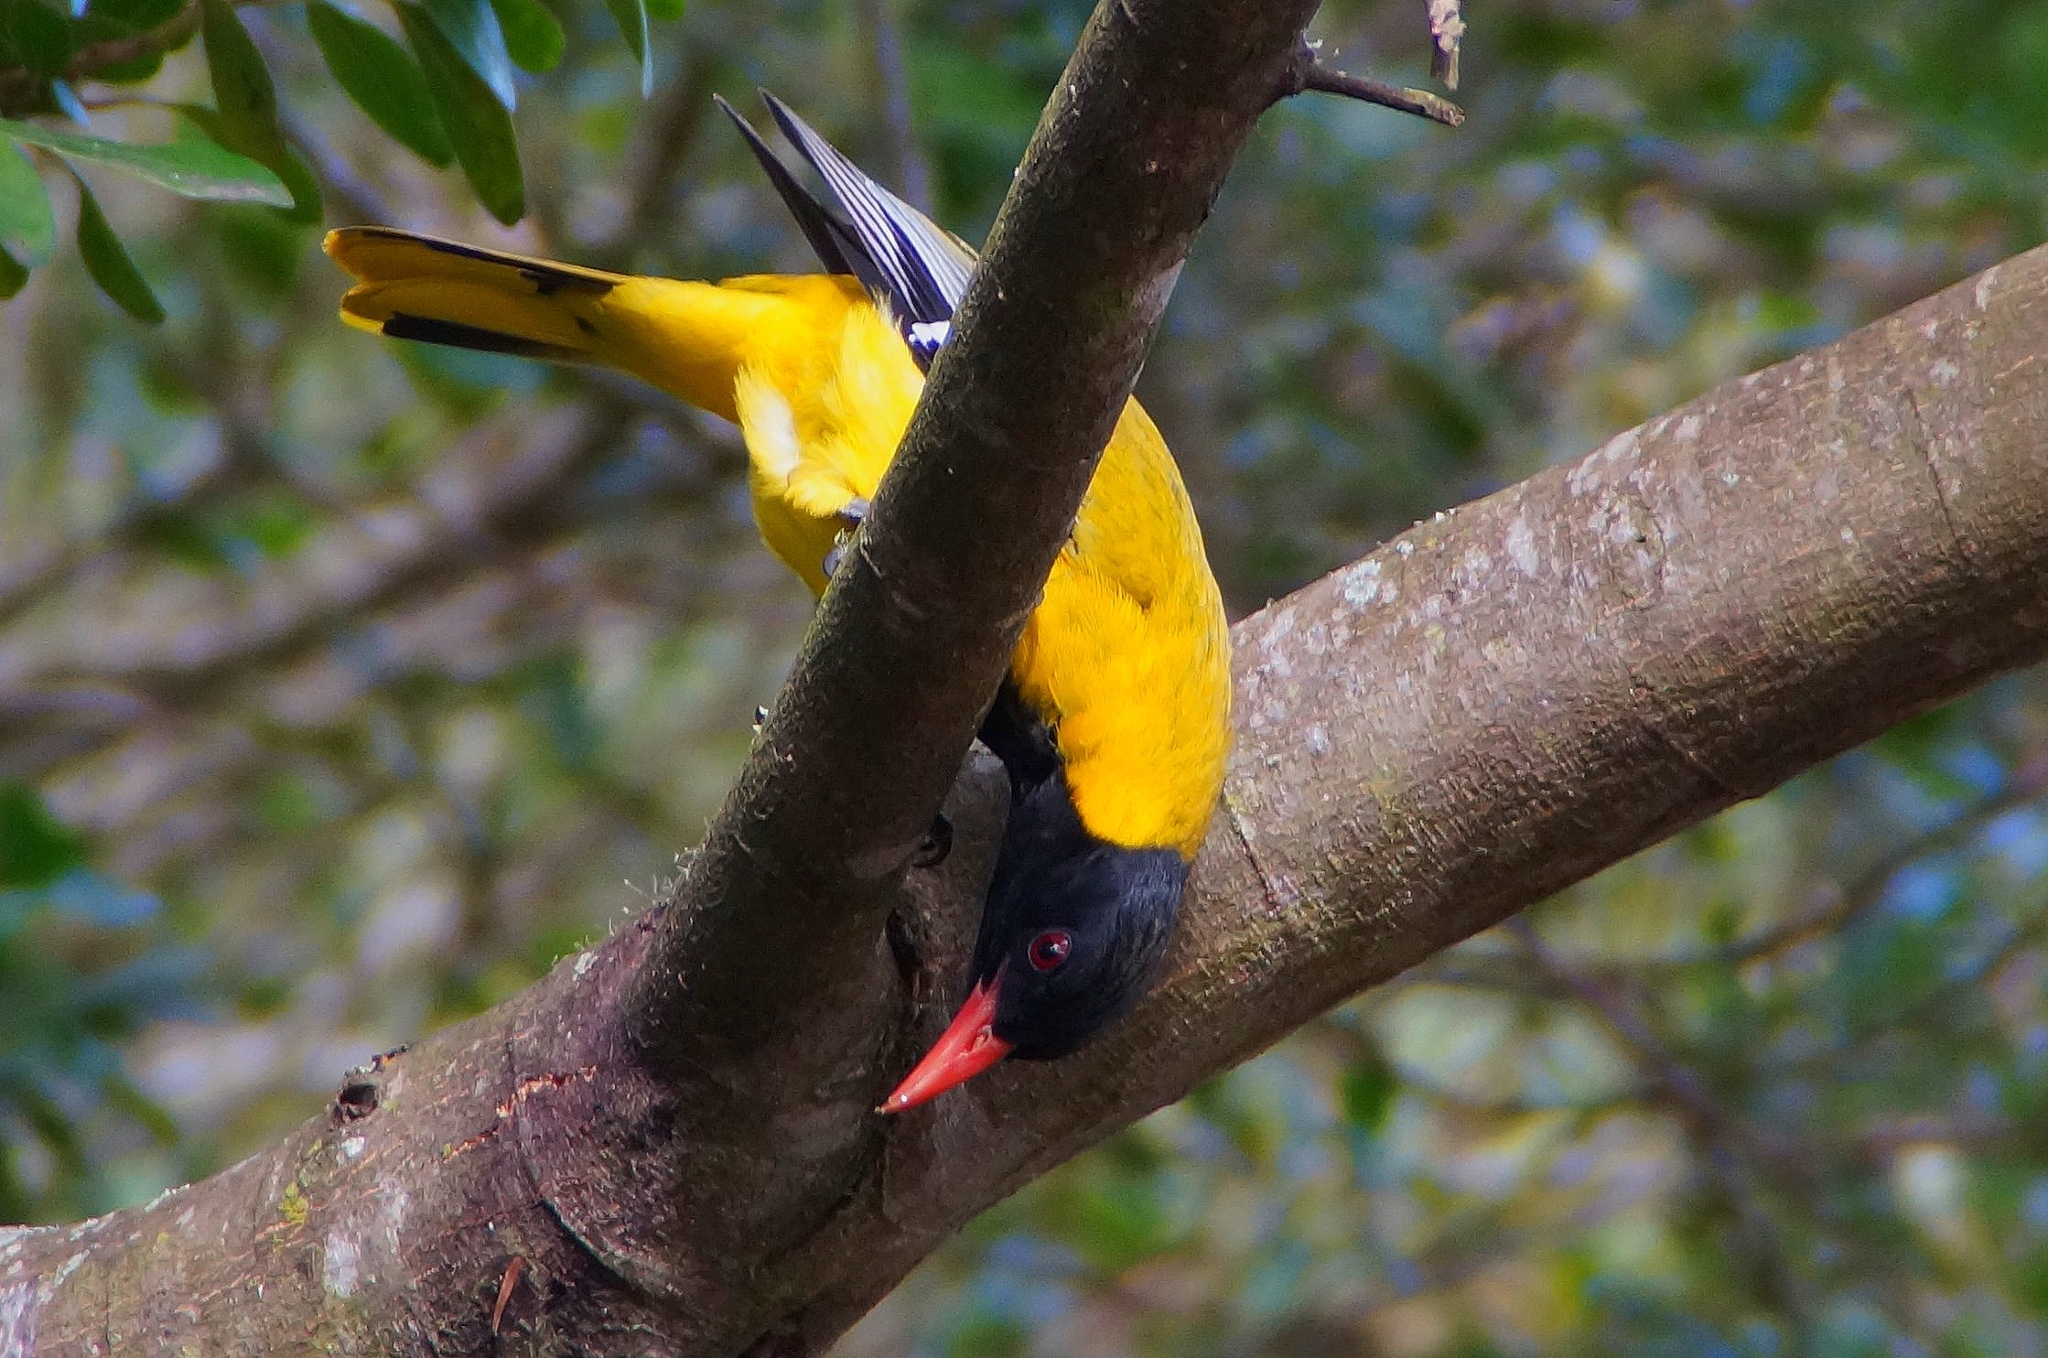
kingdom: Animalia
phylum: Chordata
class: Aves
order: Passeriformes
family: Oriolidae
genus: Oriolus
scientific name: Oriolus larvatus
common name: Black-headed oriole
